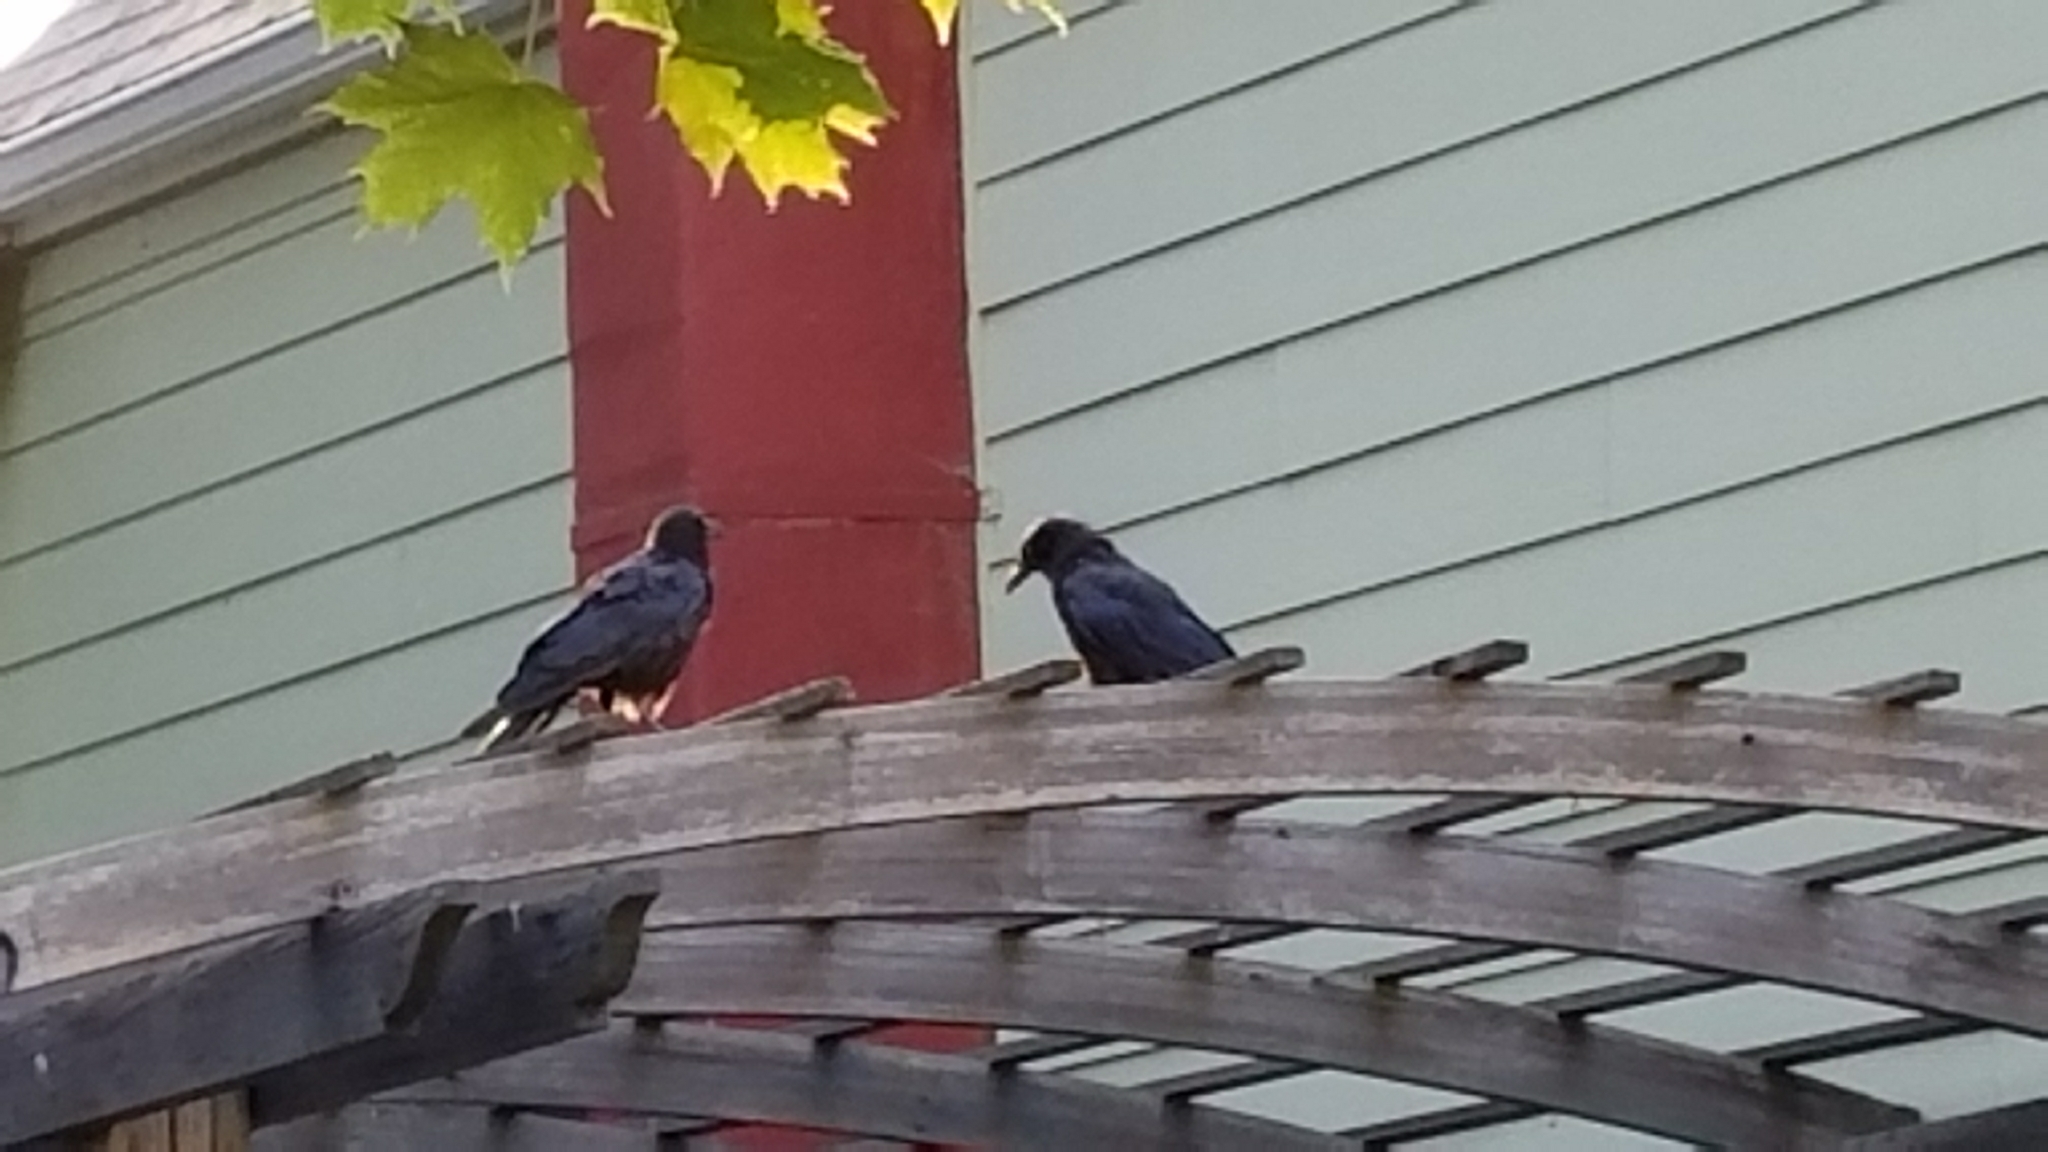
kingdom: Animalia
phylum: Chordata
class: Aves
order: Passeriformes
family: Corvidae
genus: Corvus
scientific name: Corvus brachyrhynchos
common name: American crow
